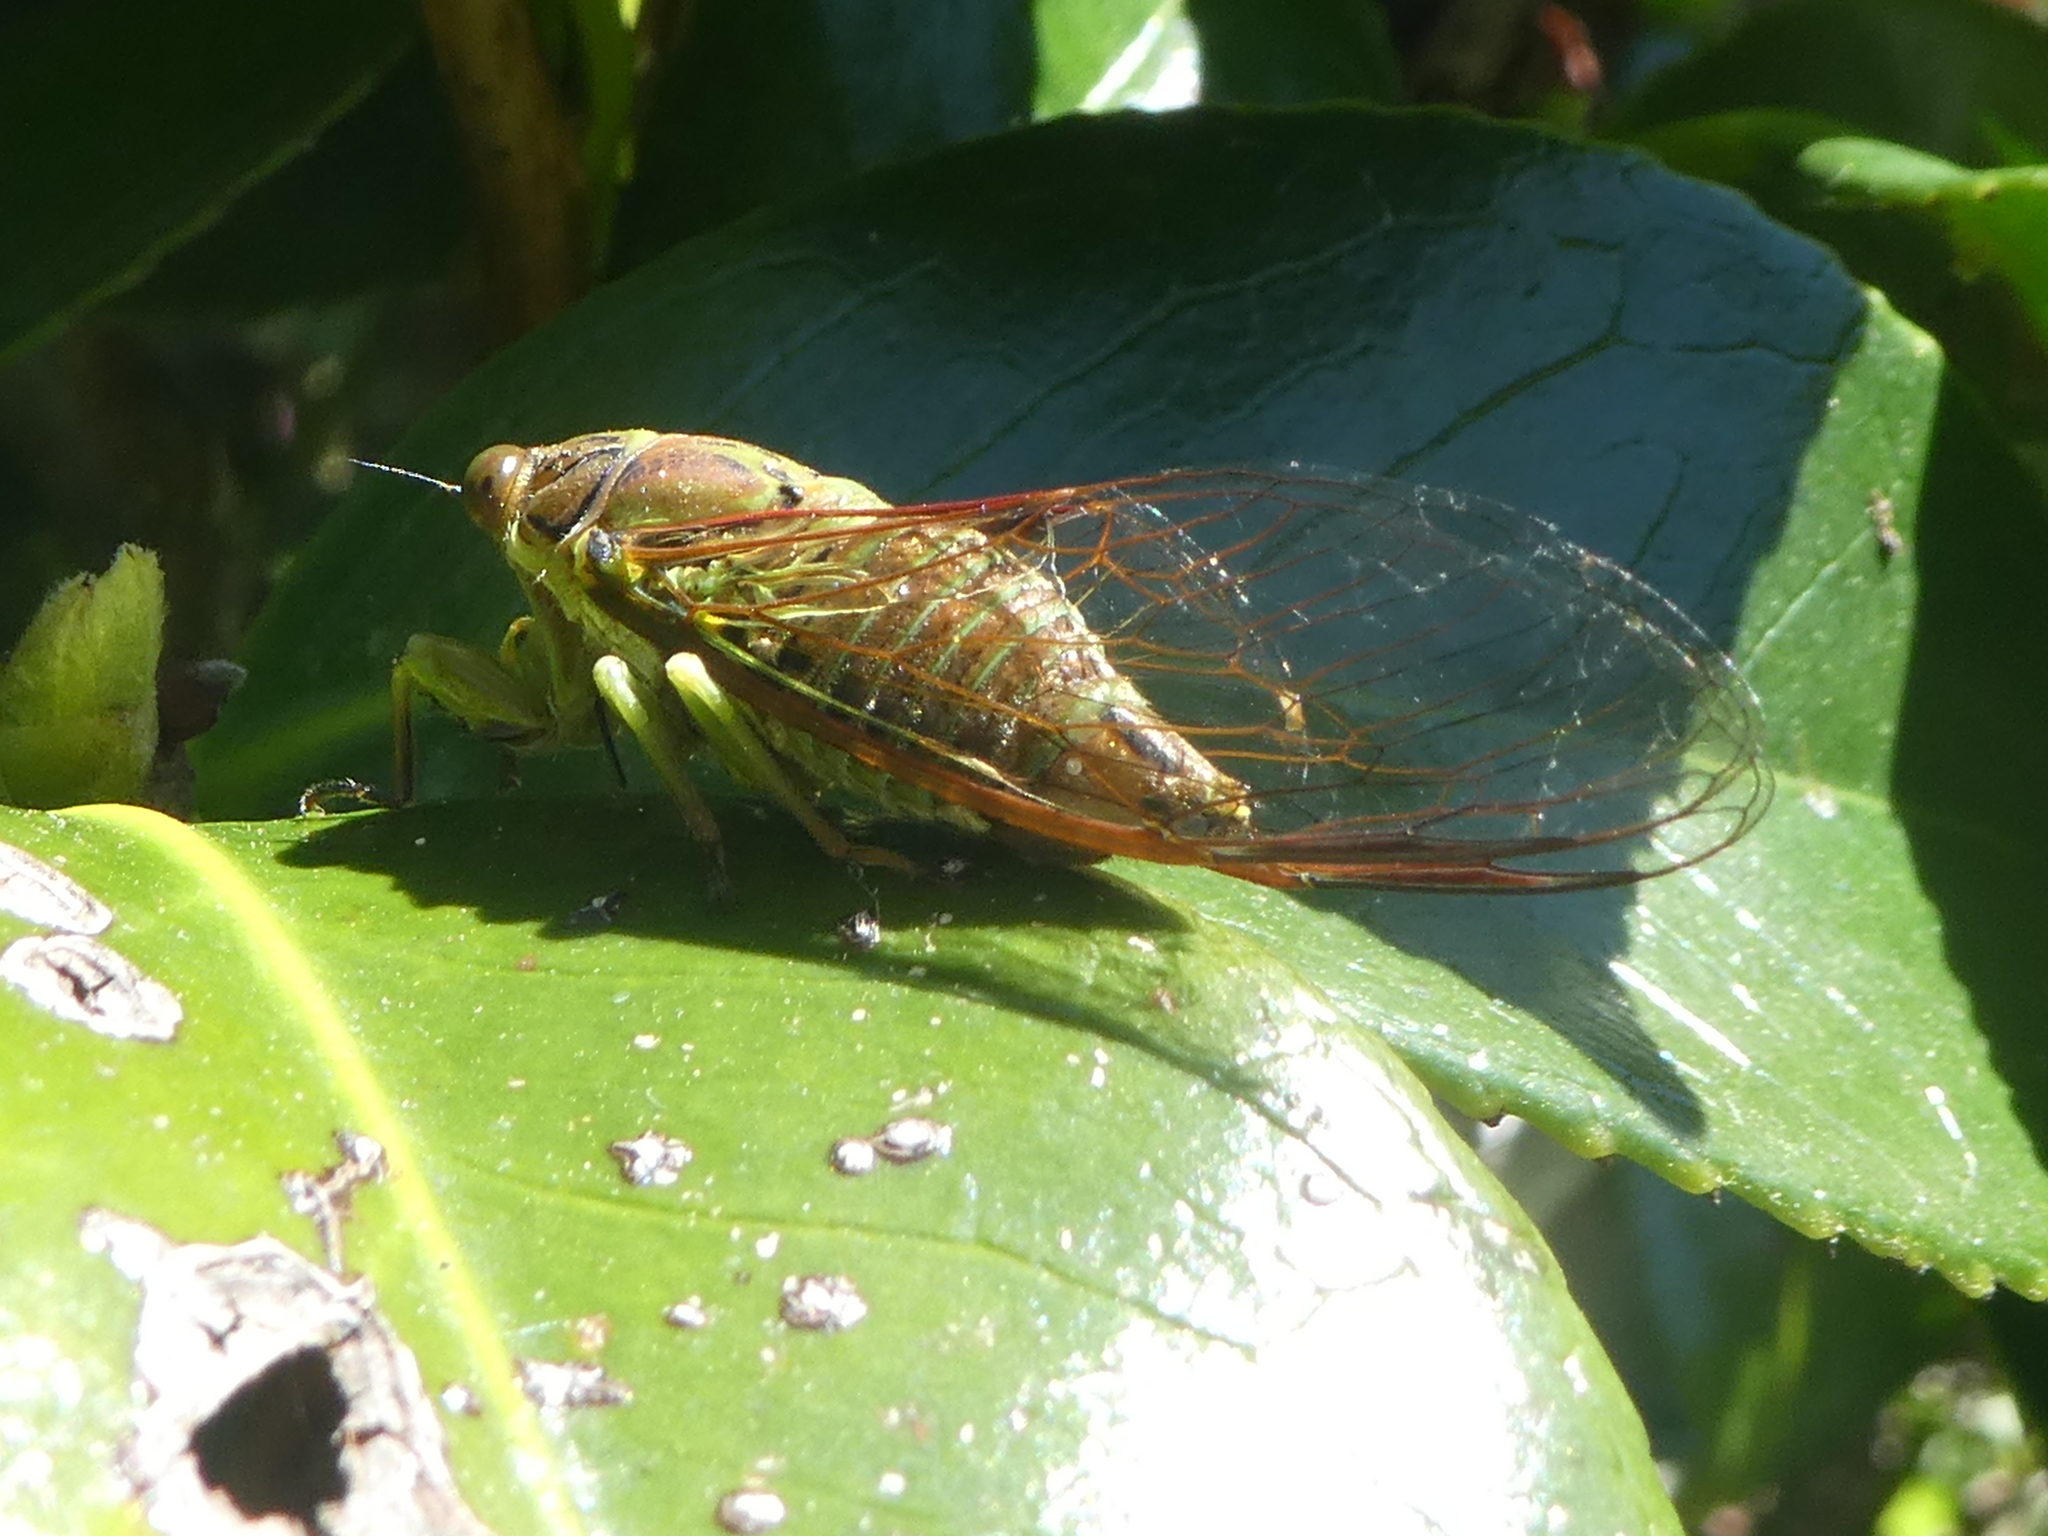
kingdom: Animalia
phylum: Arthropoda
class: Insecta
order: Hemiptera
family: Cicadidae
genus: Kikihia
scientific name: Kikihia scutellaris
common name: Lesser bronze cicada
